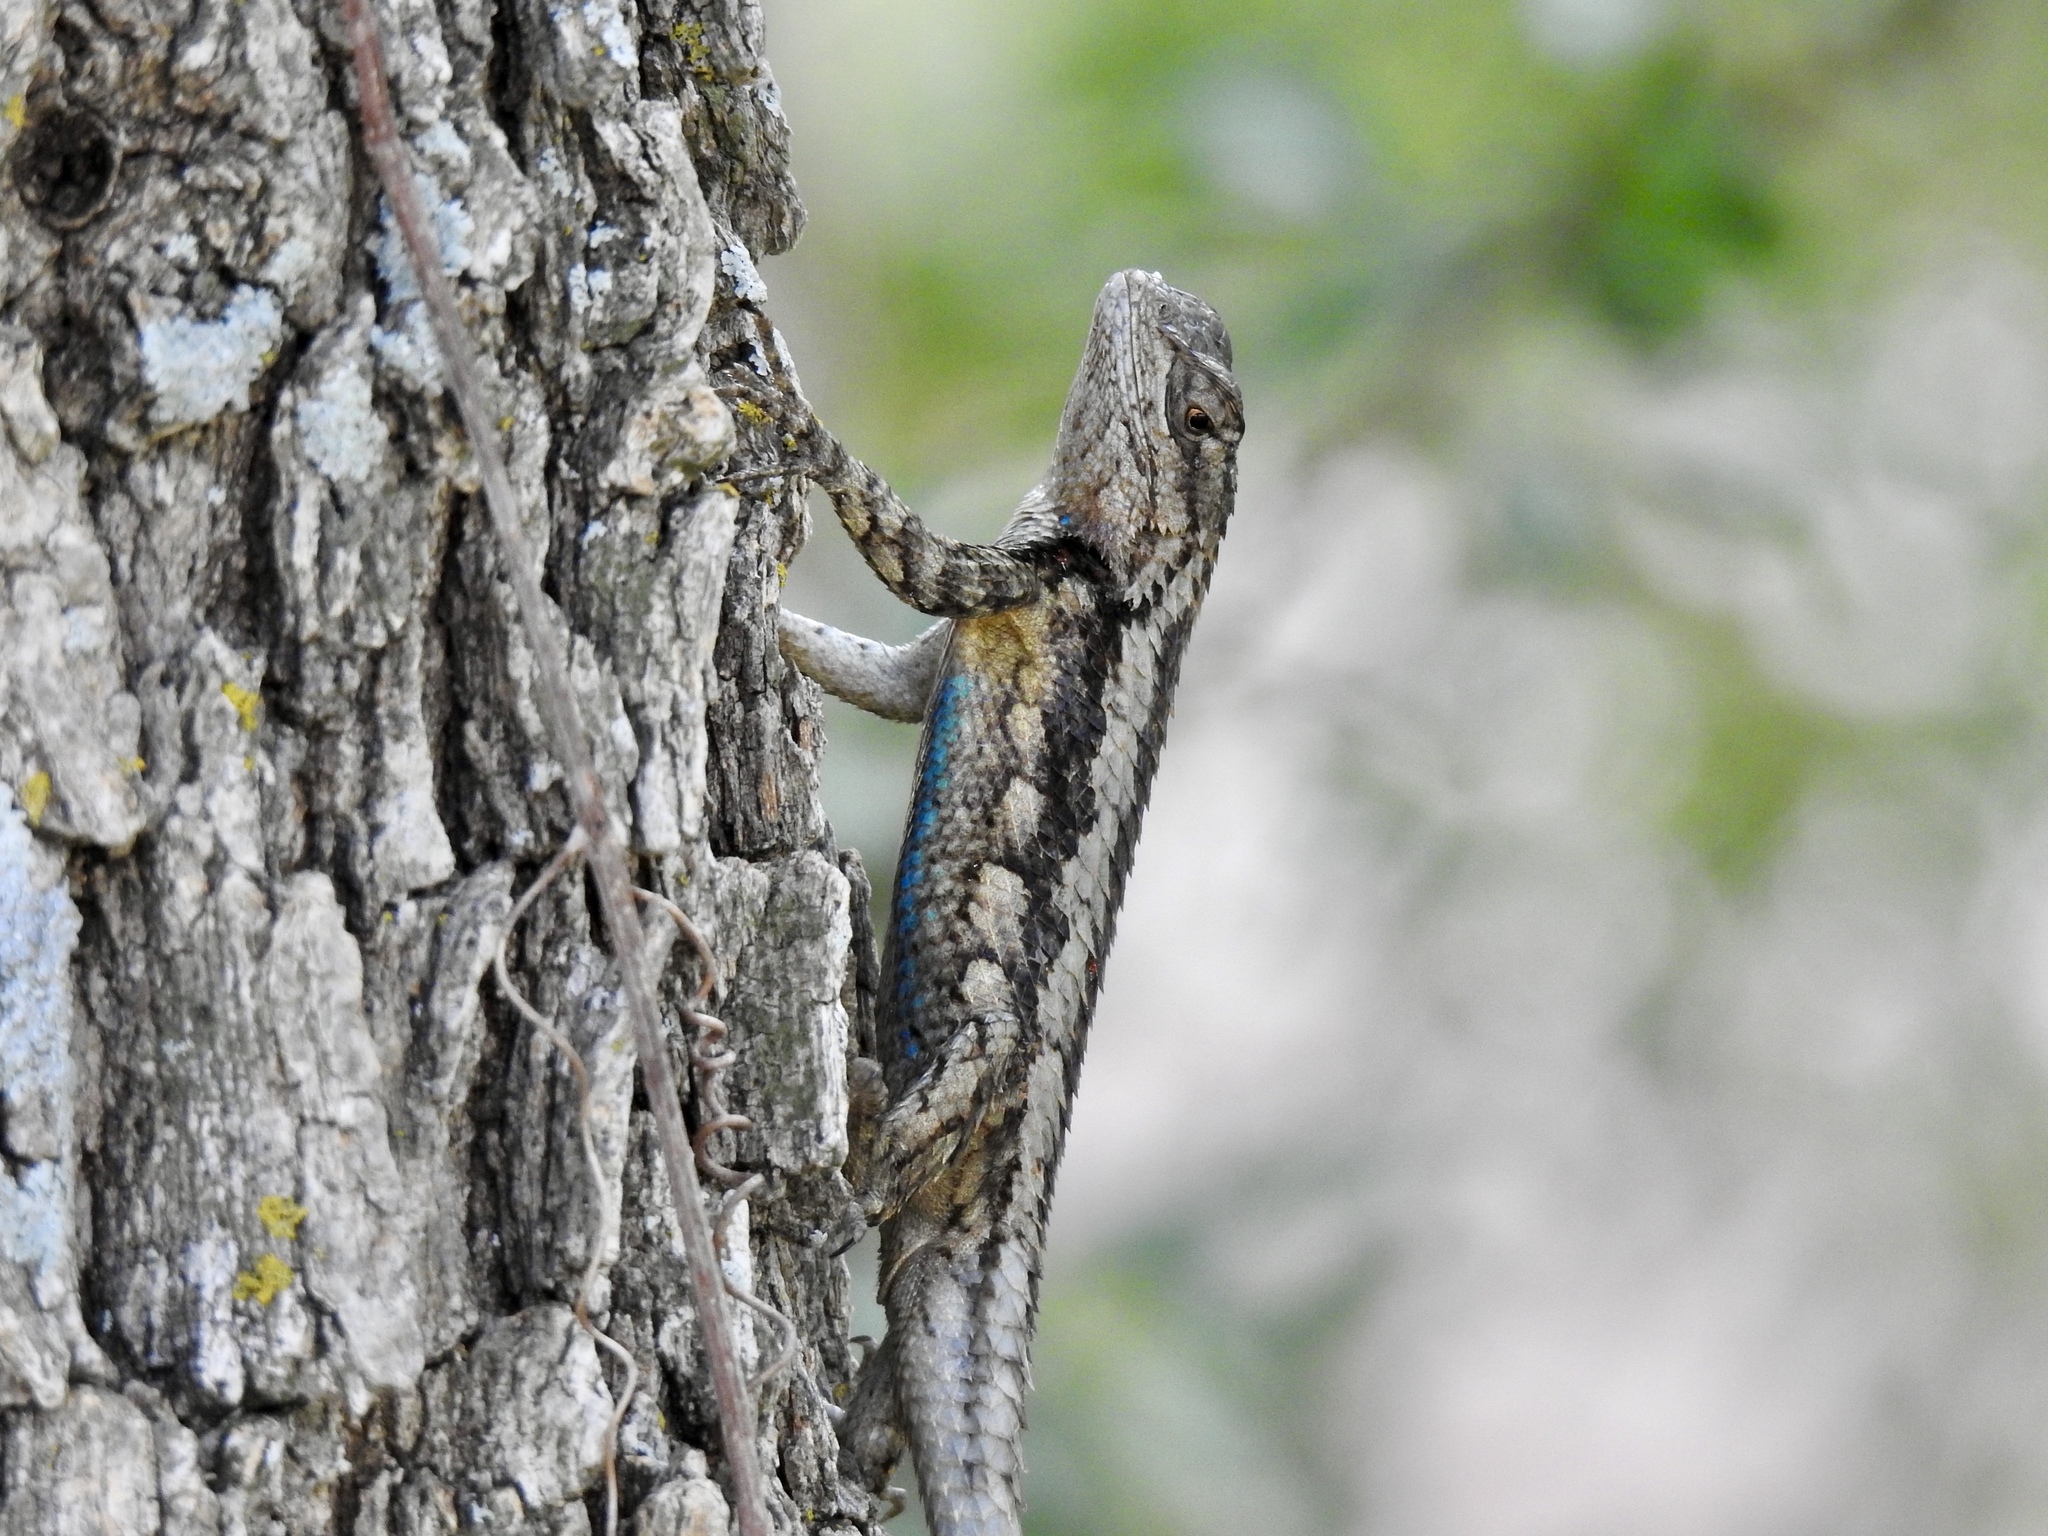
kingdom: Animalia
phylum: Chordata
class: Squamata
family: Phrynosomatidae
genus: Sceloporus
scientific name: Sceloporus olivaceus
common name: Texas spiny lizard
